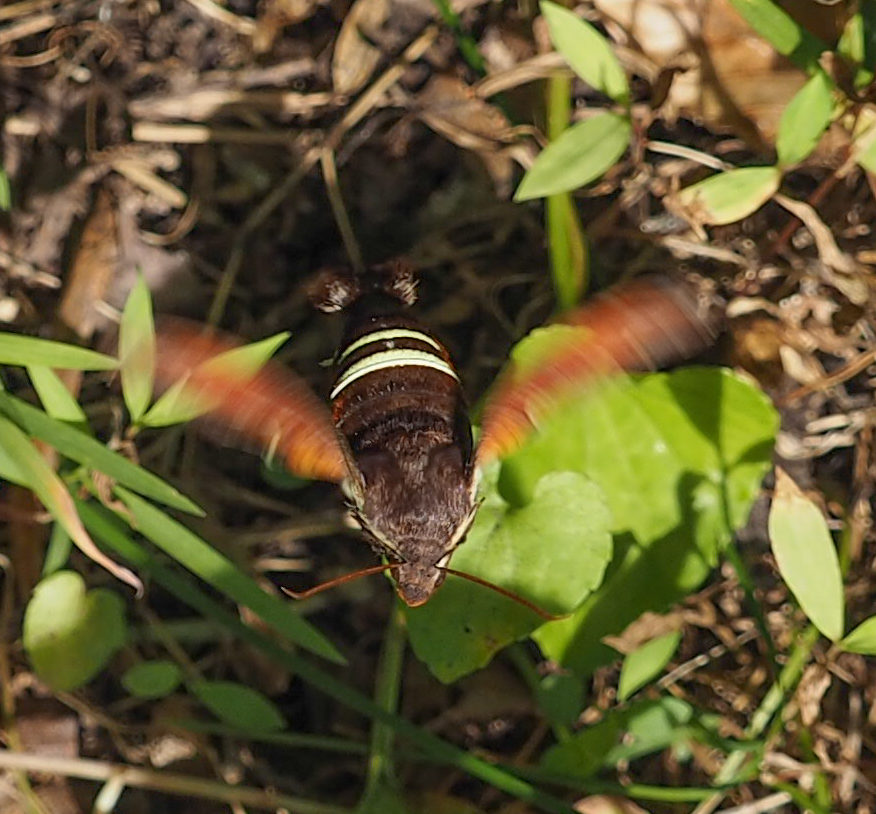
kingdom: Animalia
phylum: Arthropoda
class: Insecta
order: Lepidoptera
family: Sphingidae
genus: Amphion
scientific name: Amphion floridensis
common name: Nessus sphinx
